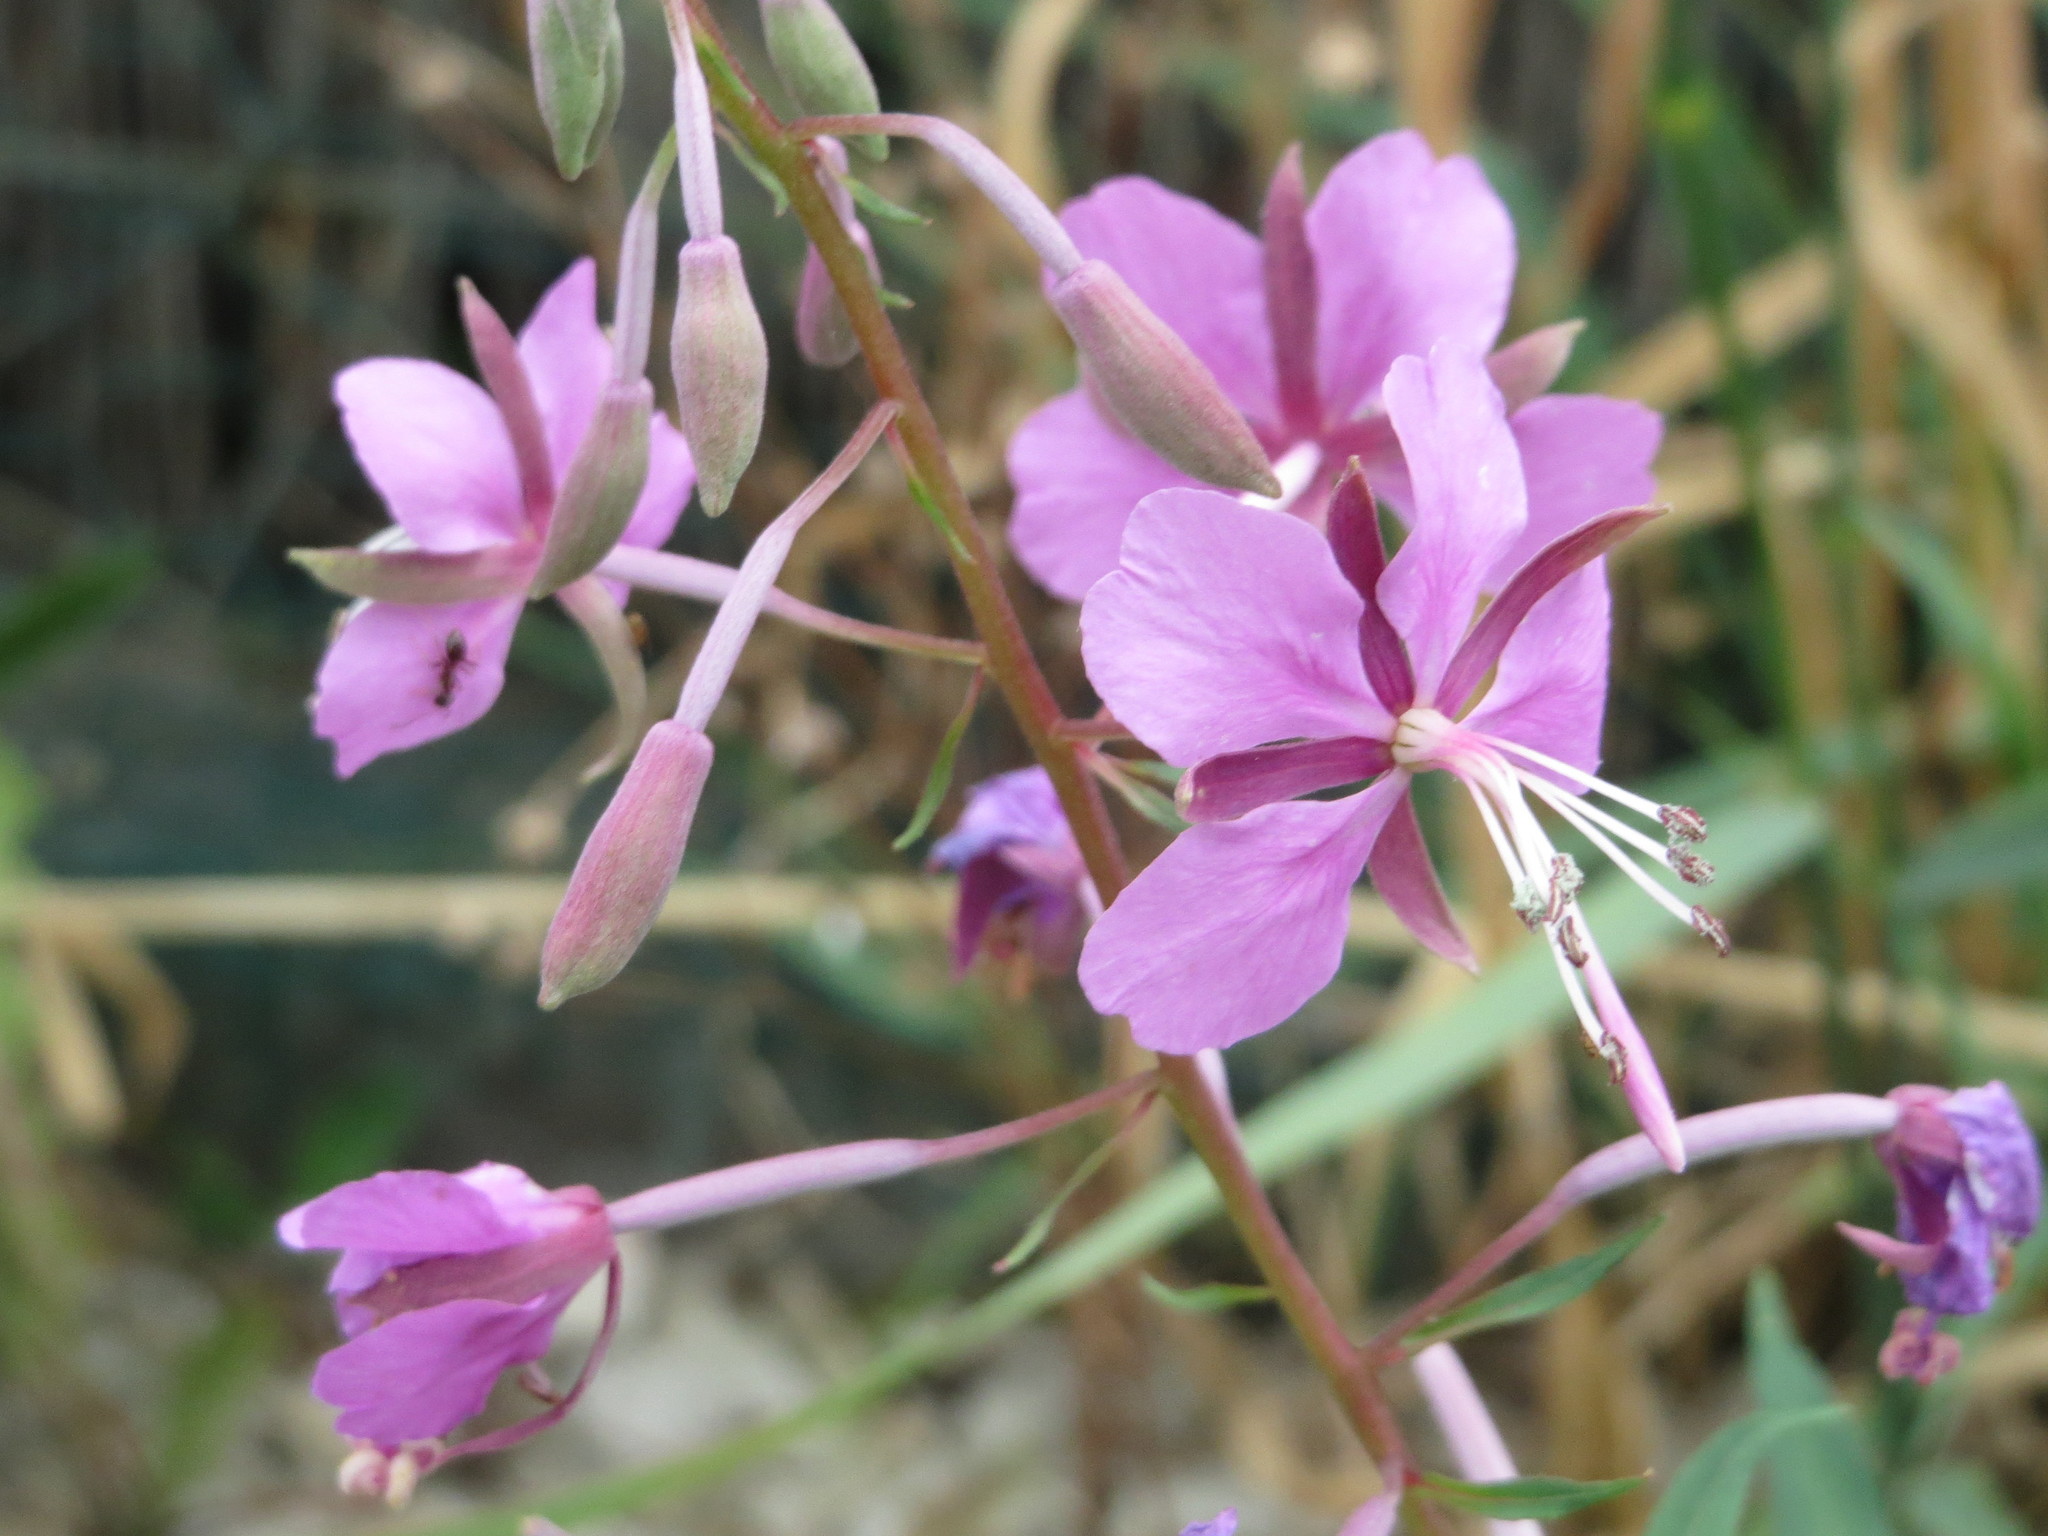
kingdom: Plantae
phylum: Tracheophyta
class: Magnoliopsida
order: Myrtales
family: Onagraceae
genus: Chamaenerion
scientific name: Chamaenerion angustifolium
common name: Fireweed
